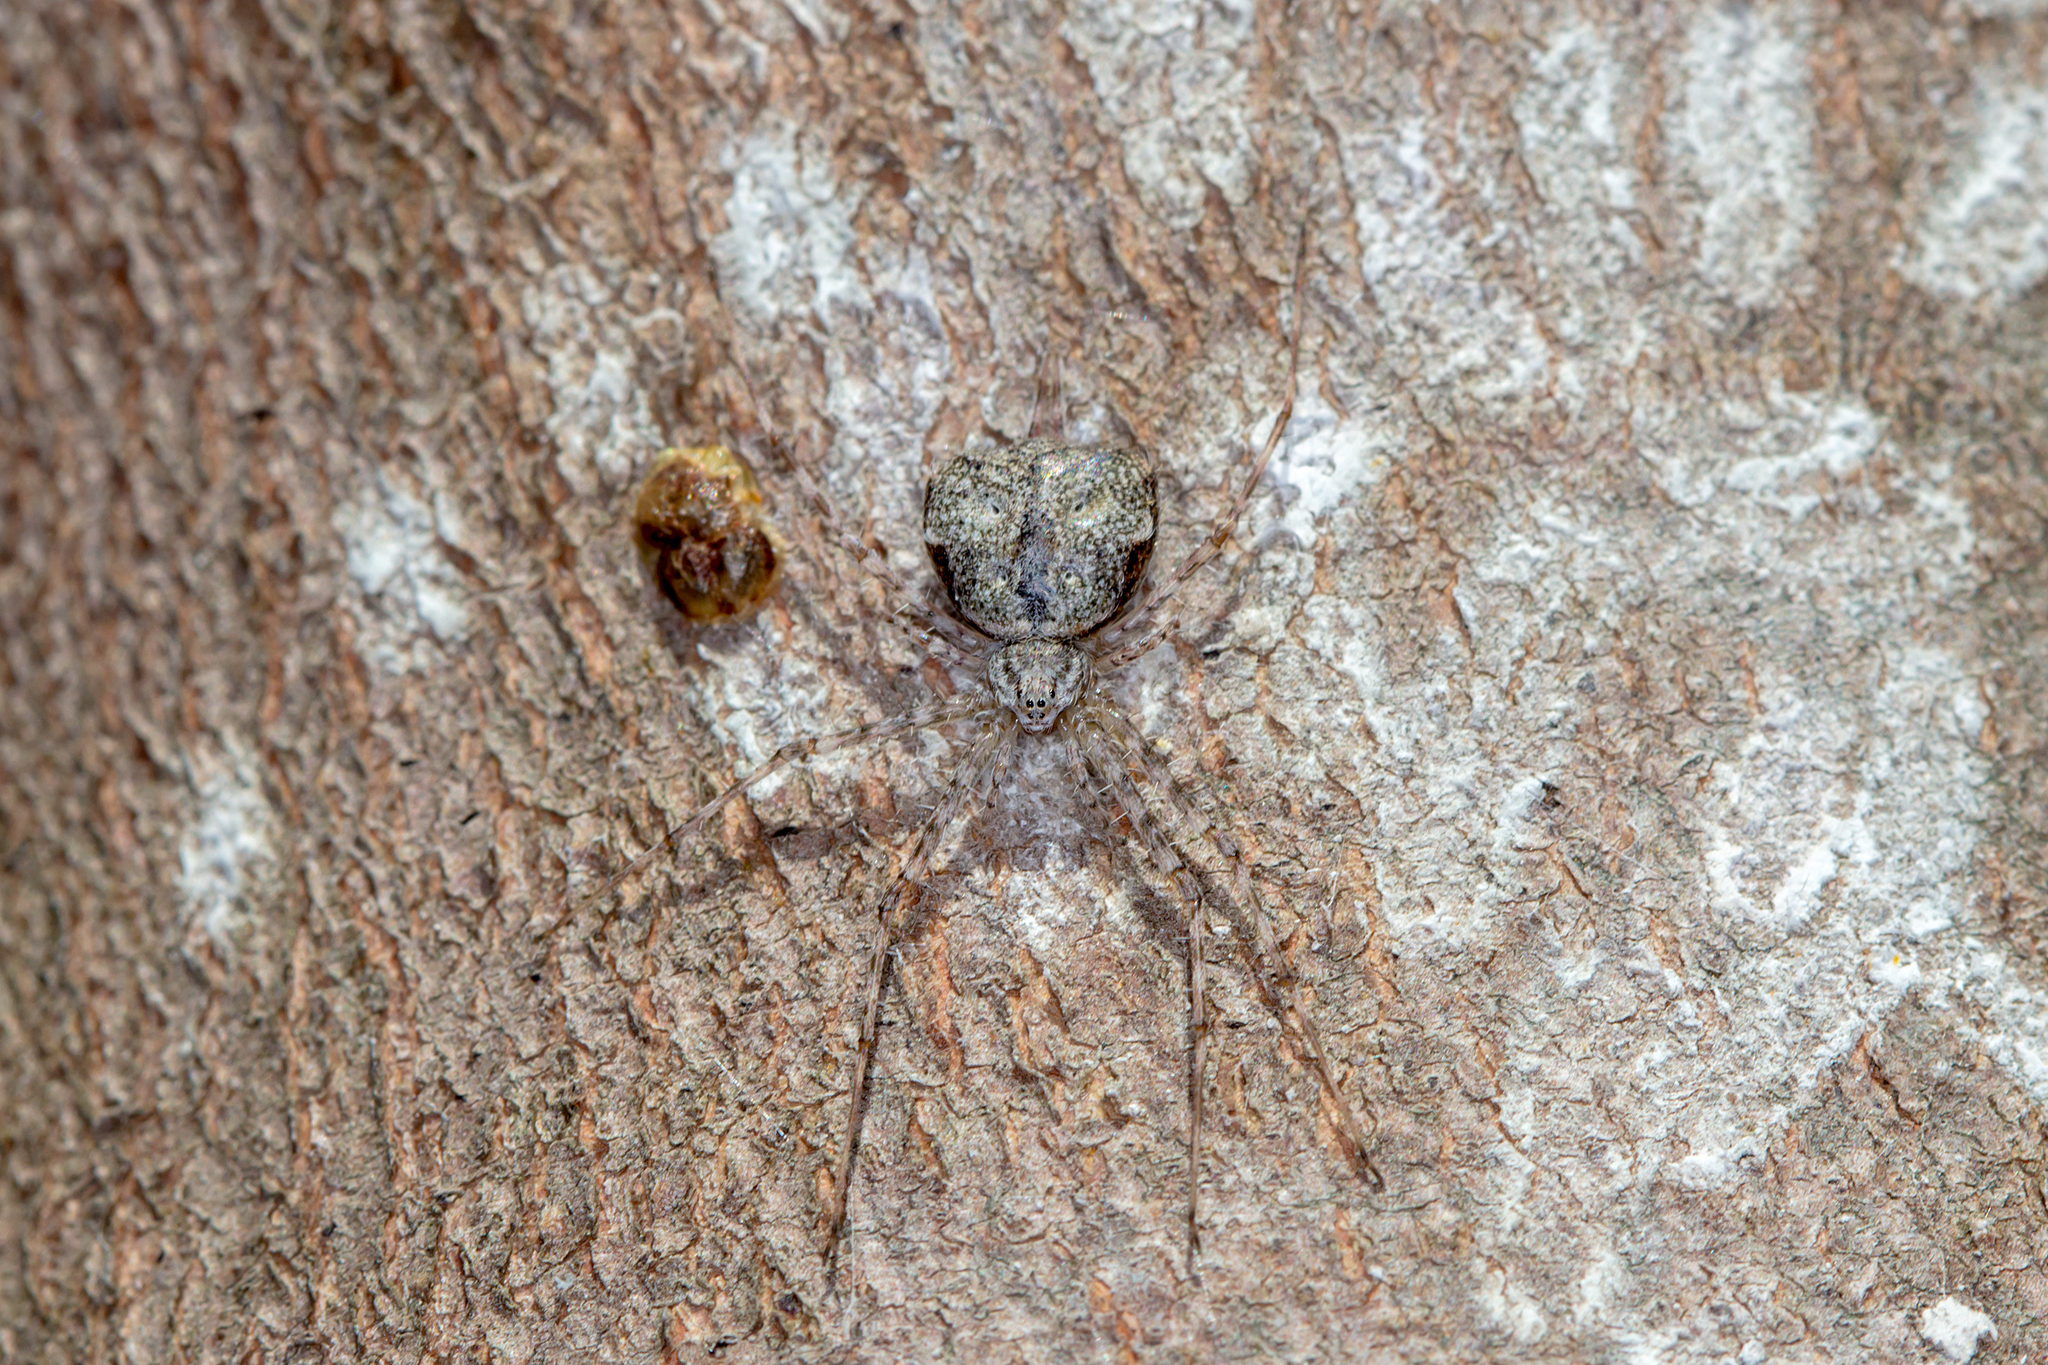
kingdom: Animalia
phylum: Arthropoda
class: Arachnida
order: Araneae
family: Hersiliidae
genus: Tamopsis
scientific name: Tamopsis brisbanensis
